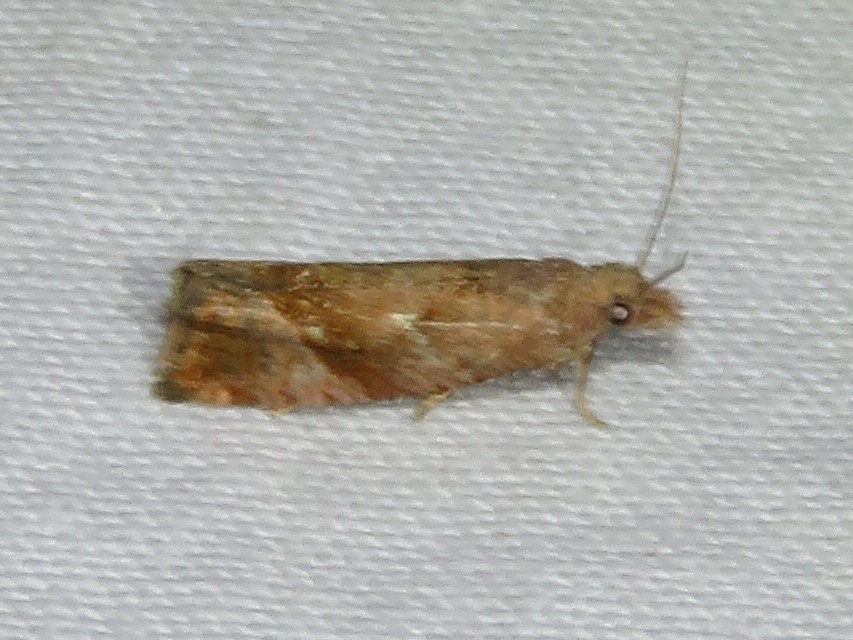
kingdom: Animalia
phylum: Arthropoda
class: Insecta
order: Lepidoptera
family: Tortricidae
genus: Pelochrista
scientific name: Pelochrista derelicta
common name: Derelict pelochrista moth
